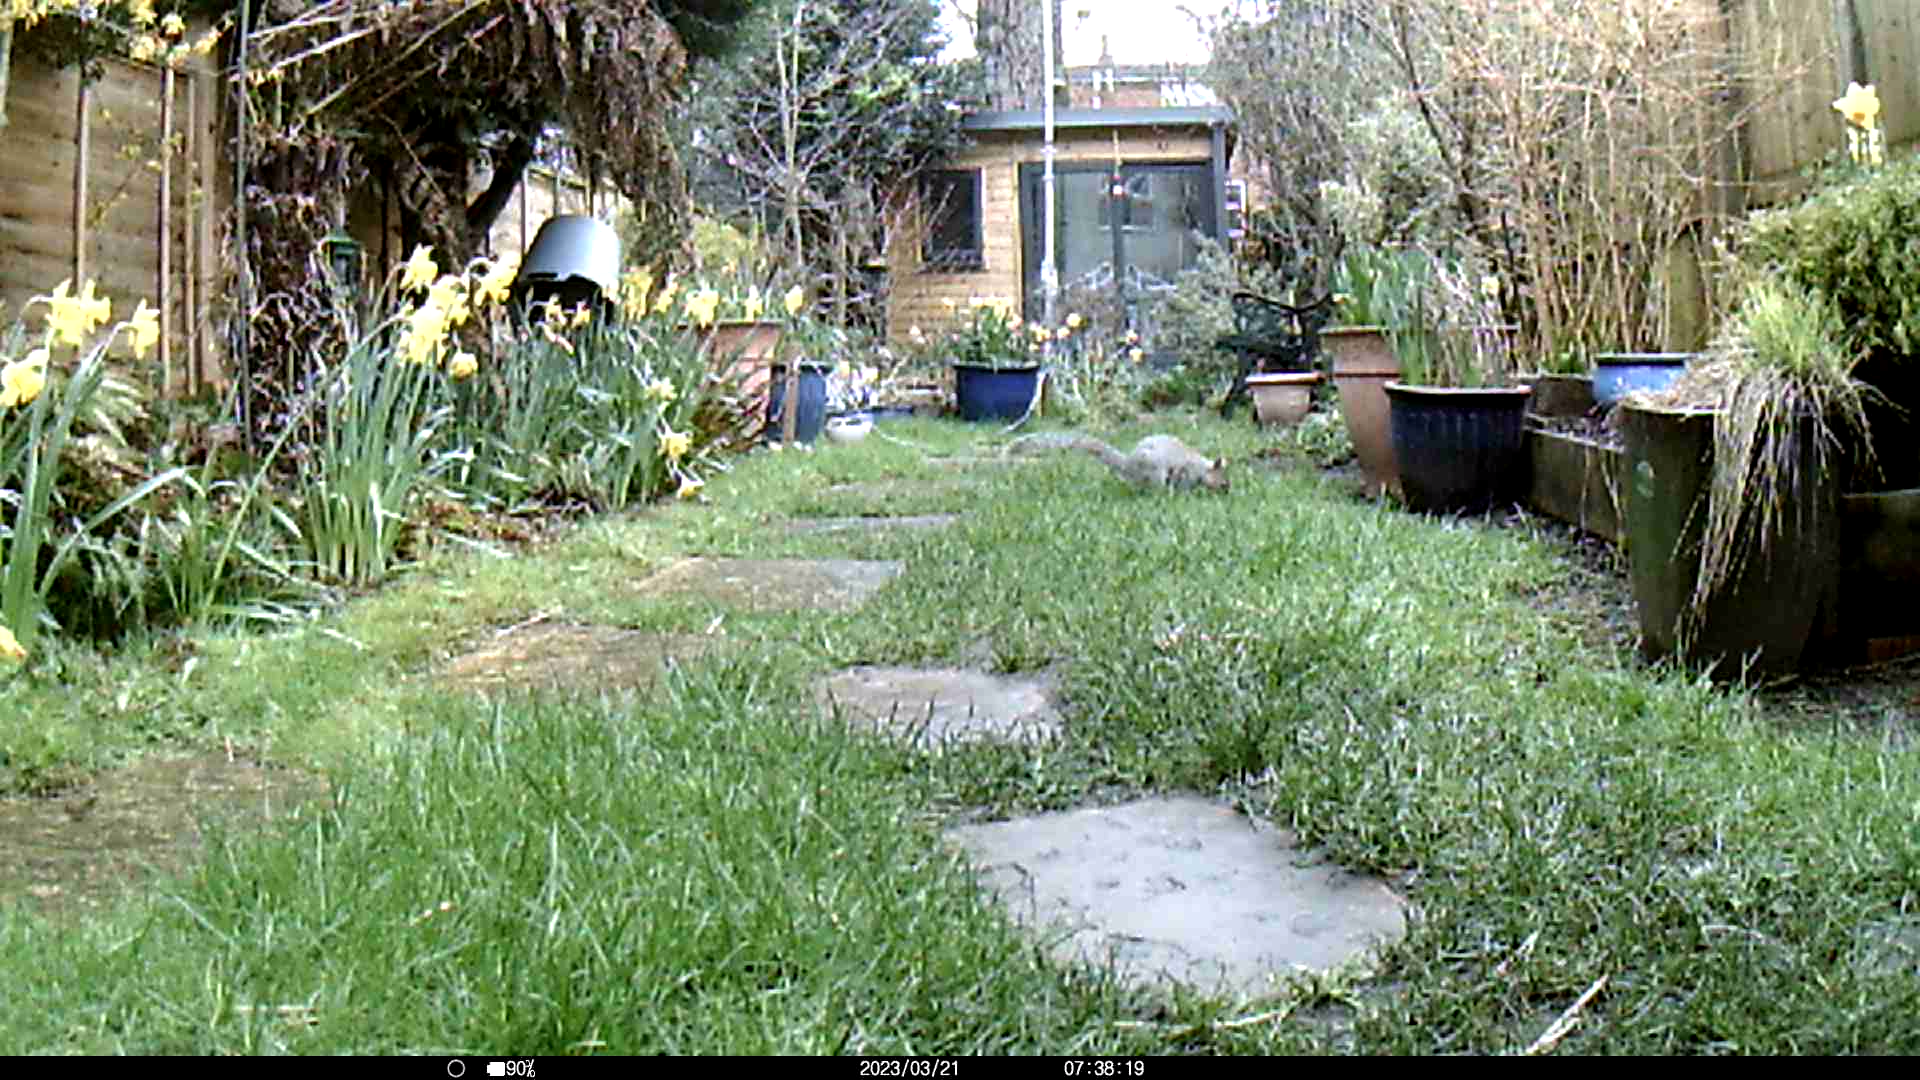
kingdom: Animalia
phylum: Chordata
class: Mammalia
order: Rodentia
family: Sciuridae
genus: Sciurus
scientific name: Sciurus carolinensis
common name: Eastern gray squirrel
